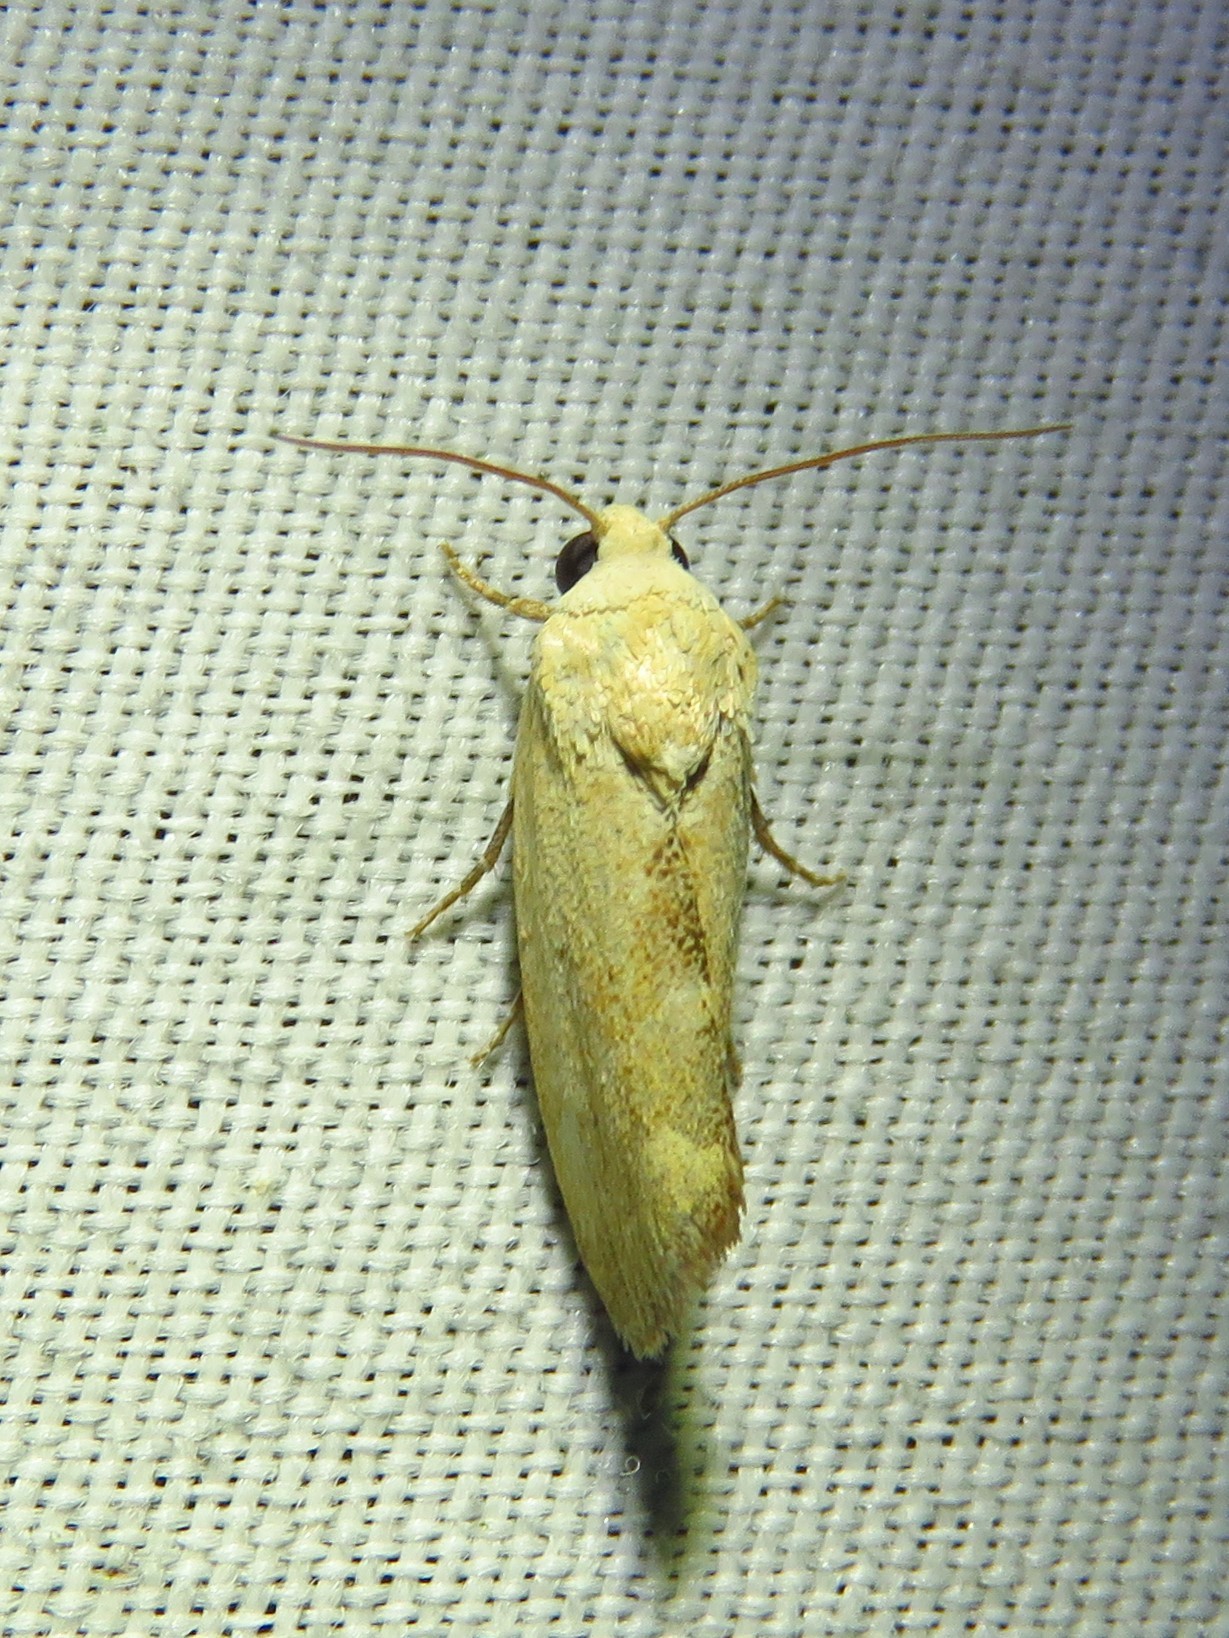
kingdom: Animalia
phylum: Arthropoda
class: Insecta
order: Lepidoptera
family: Noctuidae
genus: Acontia
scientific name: Acontia fasciatella
